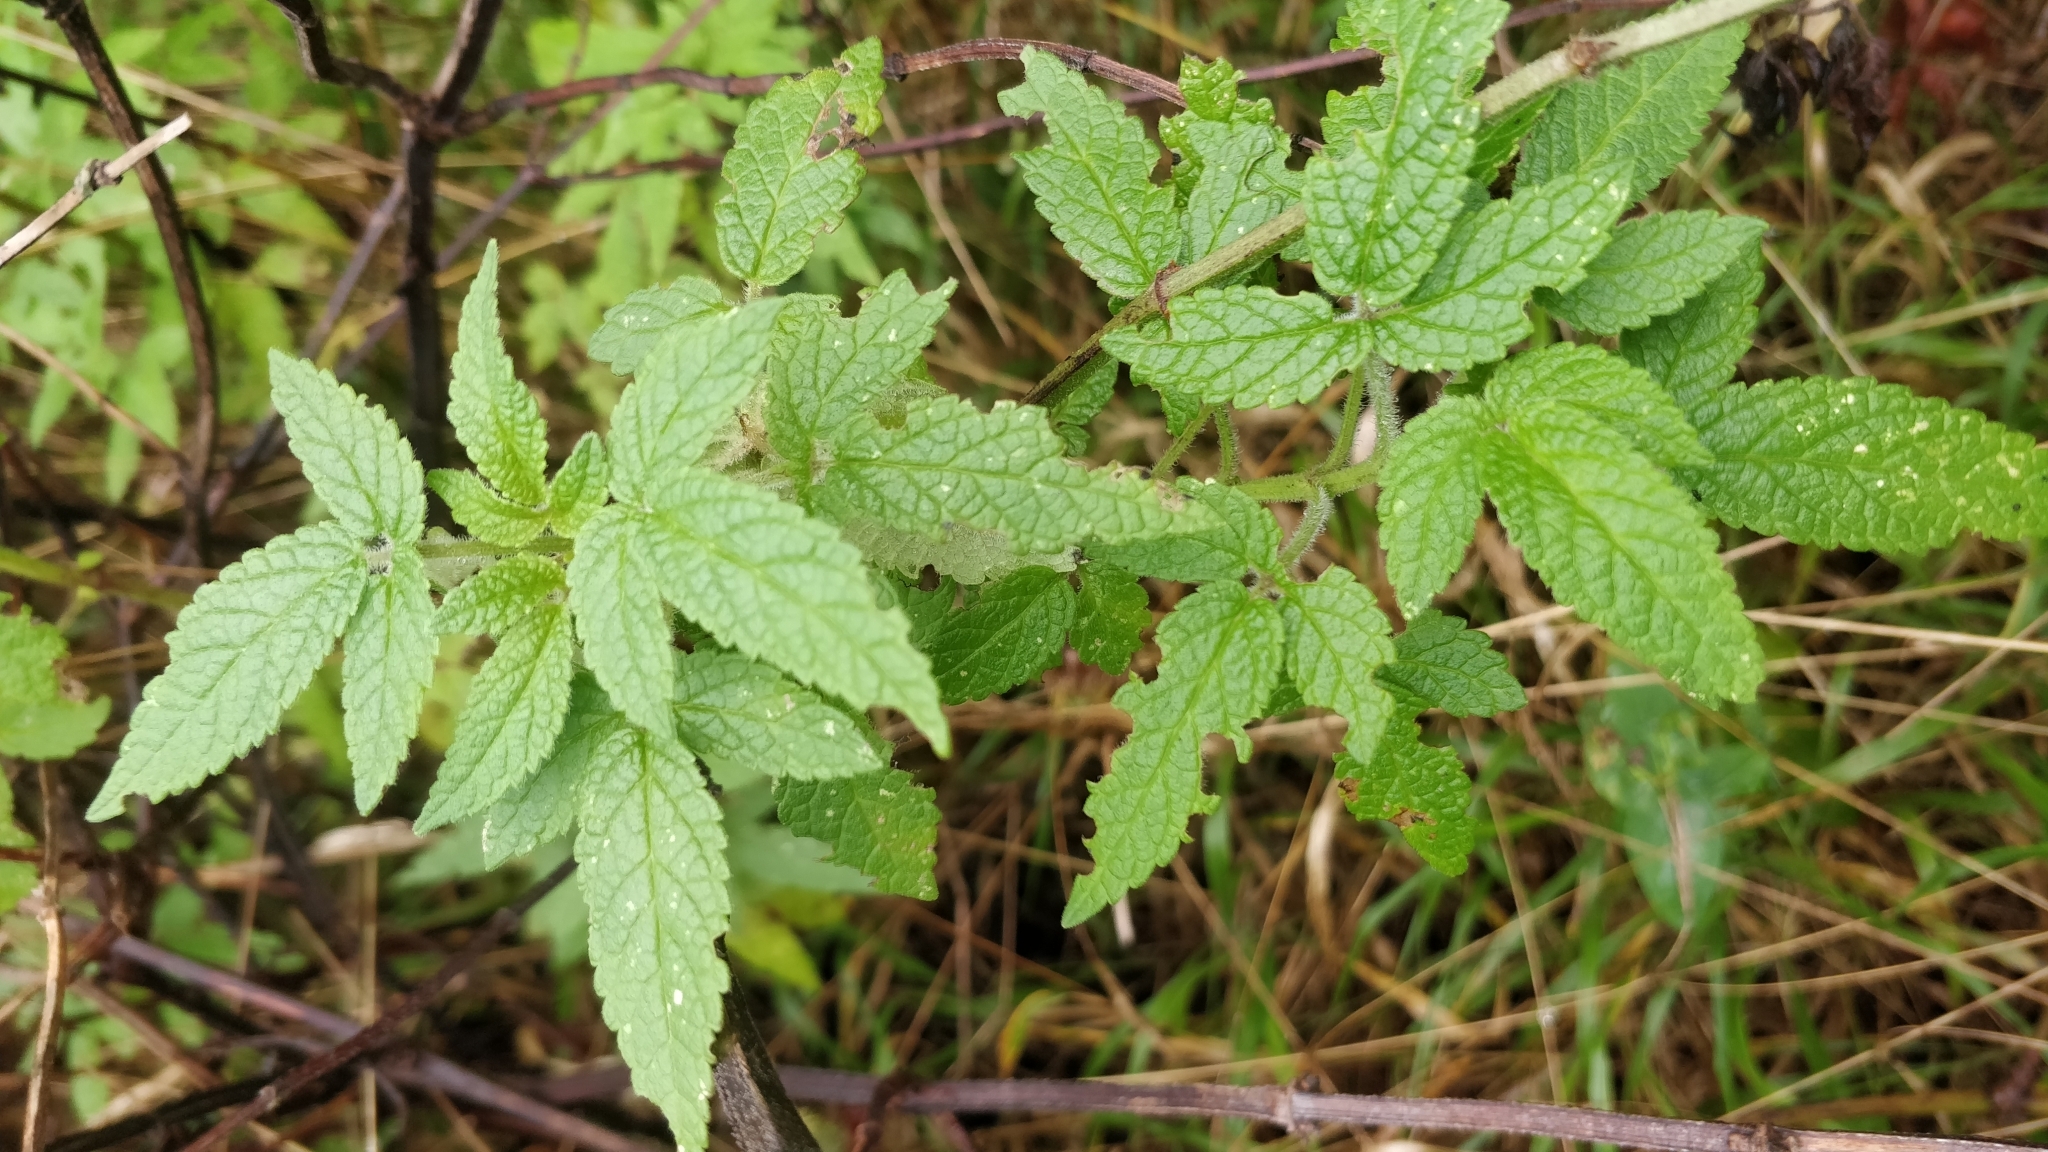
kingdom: Plantae
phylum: Tracheophyta
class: Magnoliopsida
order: Lamiales
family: Lamiaceae
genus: Cedronella
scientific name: Cedronella canariensis
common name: Canary islands balm
